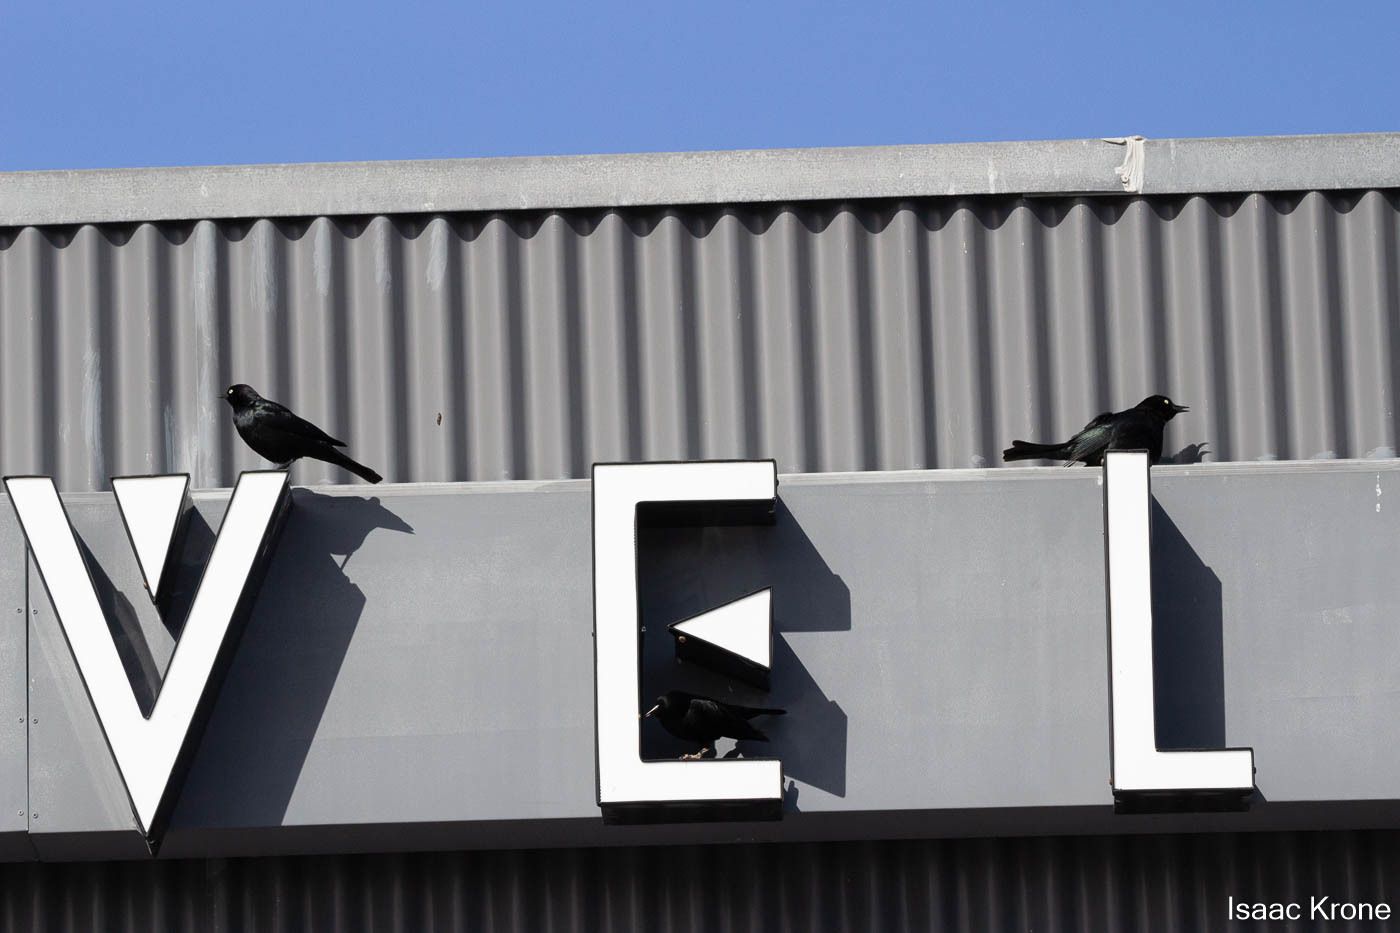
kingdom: Animalia
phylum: Chordata
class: Aves
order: Passeriformes
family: Icteridae
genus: Euphagus
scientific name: Euphagus cyanocephalus
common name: Brewer's blackbird
